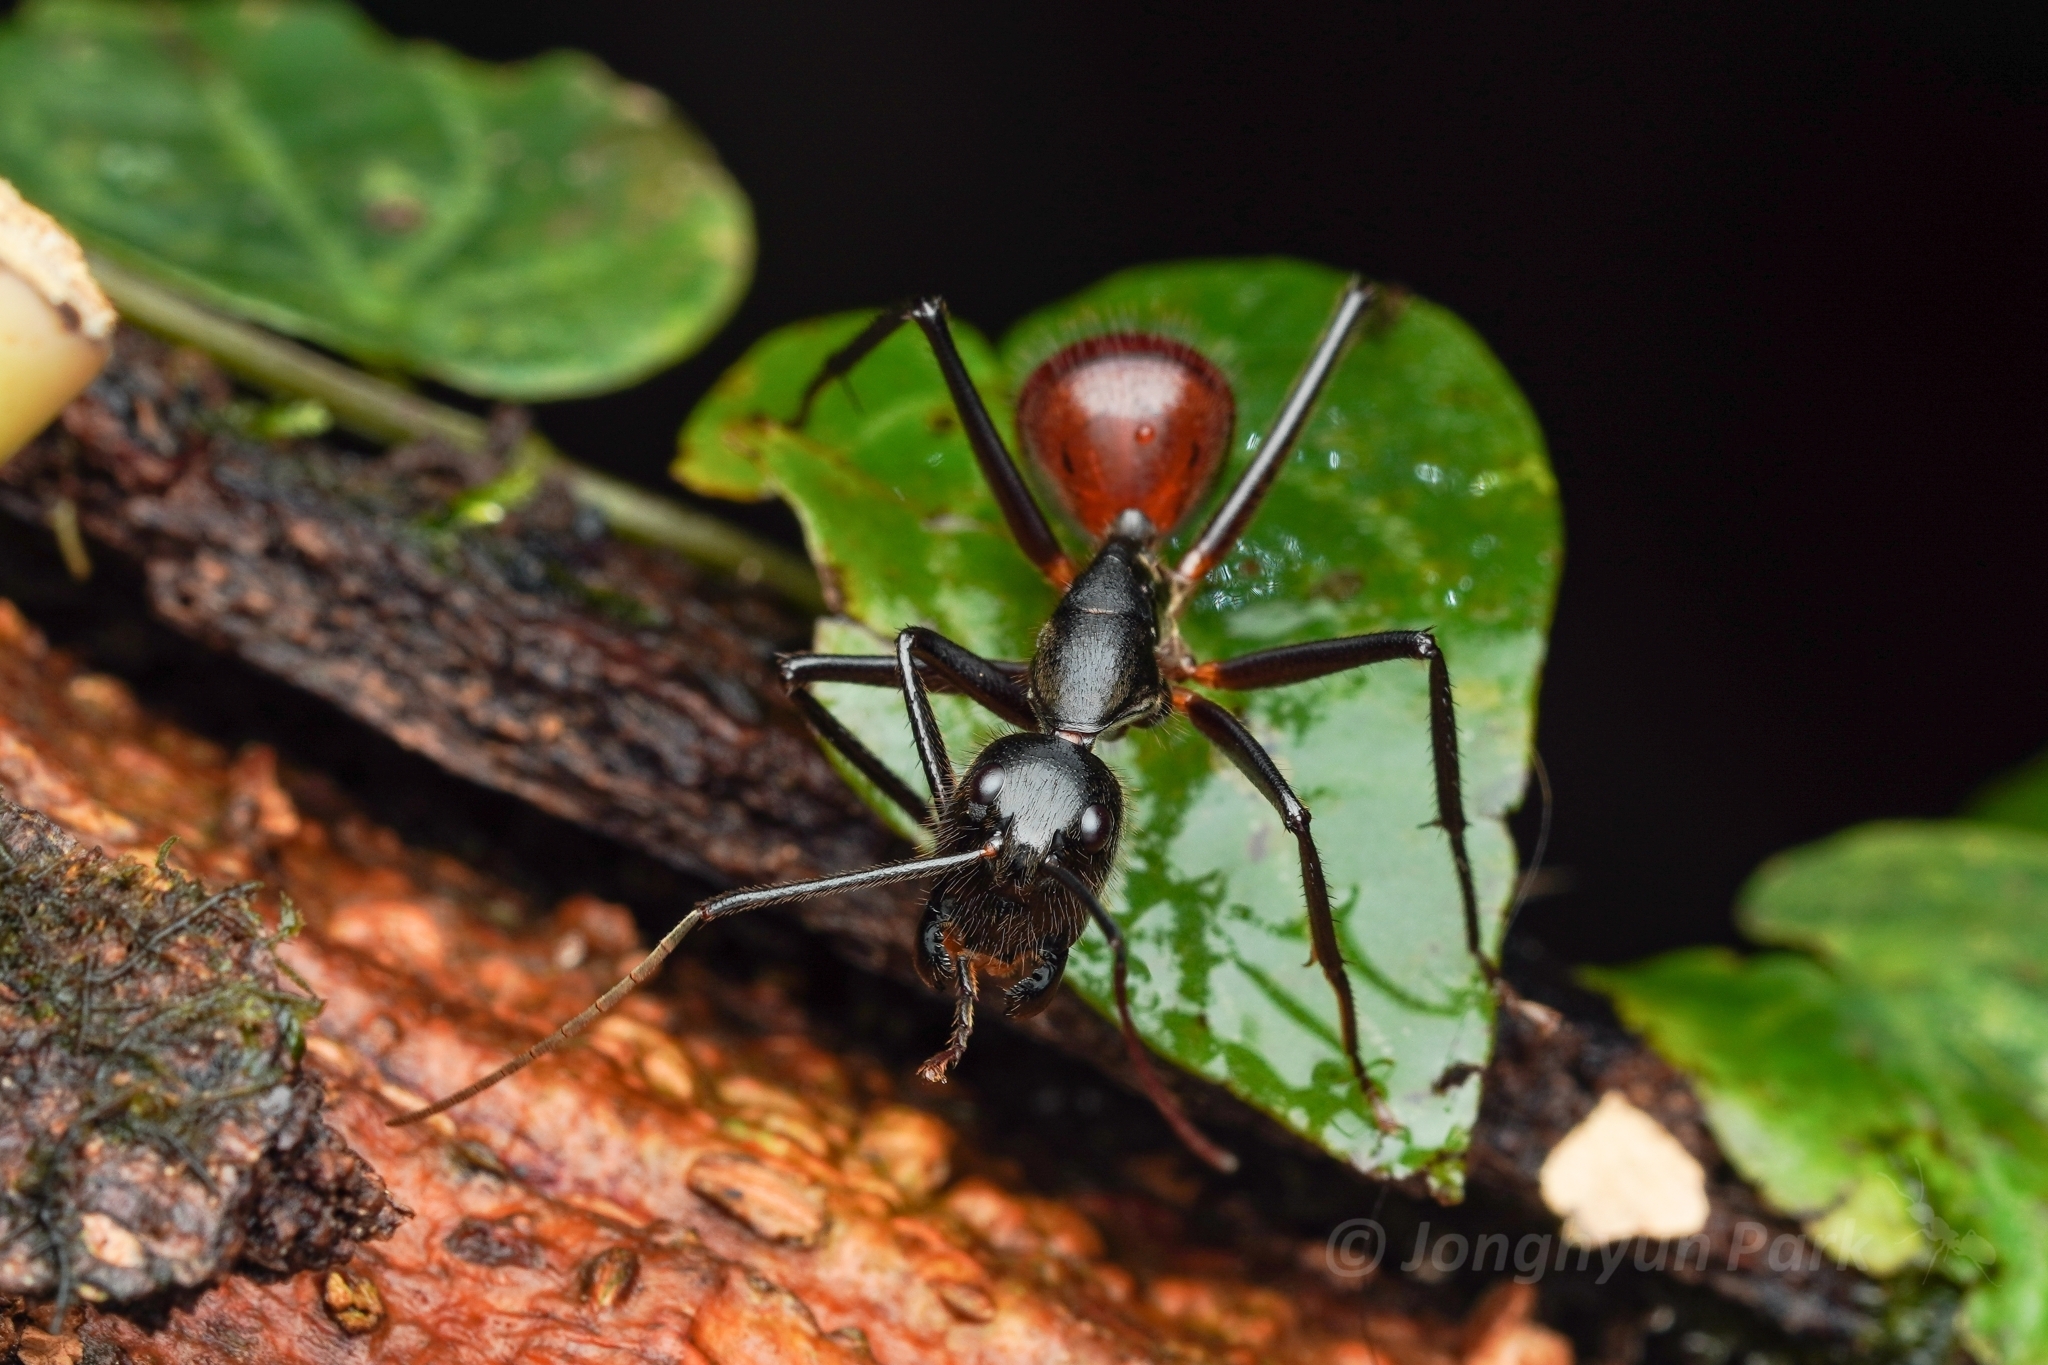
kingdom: Animalia
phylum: Arthropoda
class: Insecta
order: Hymenoptera
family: Formicidae
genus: Dinomyrmex
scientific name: Dinomyrmex
